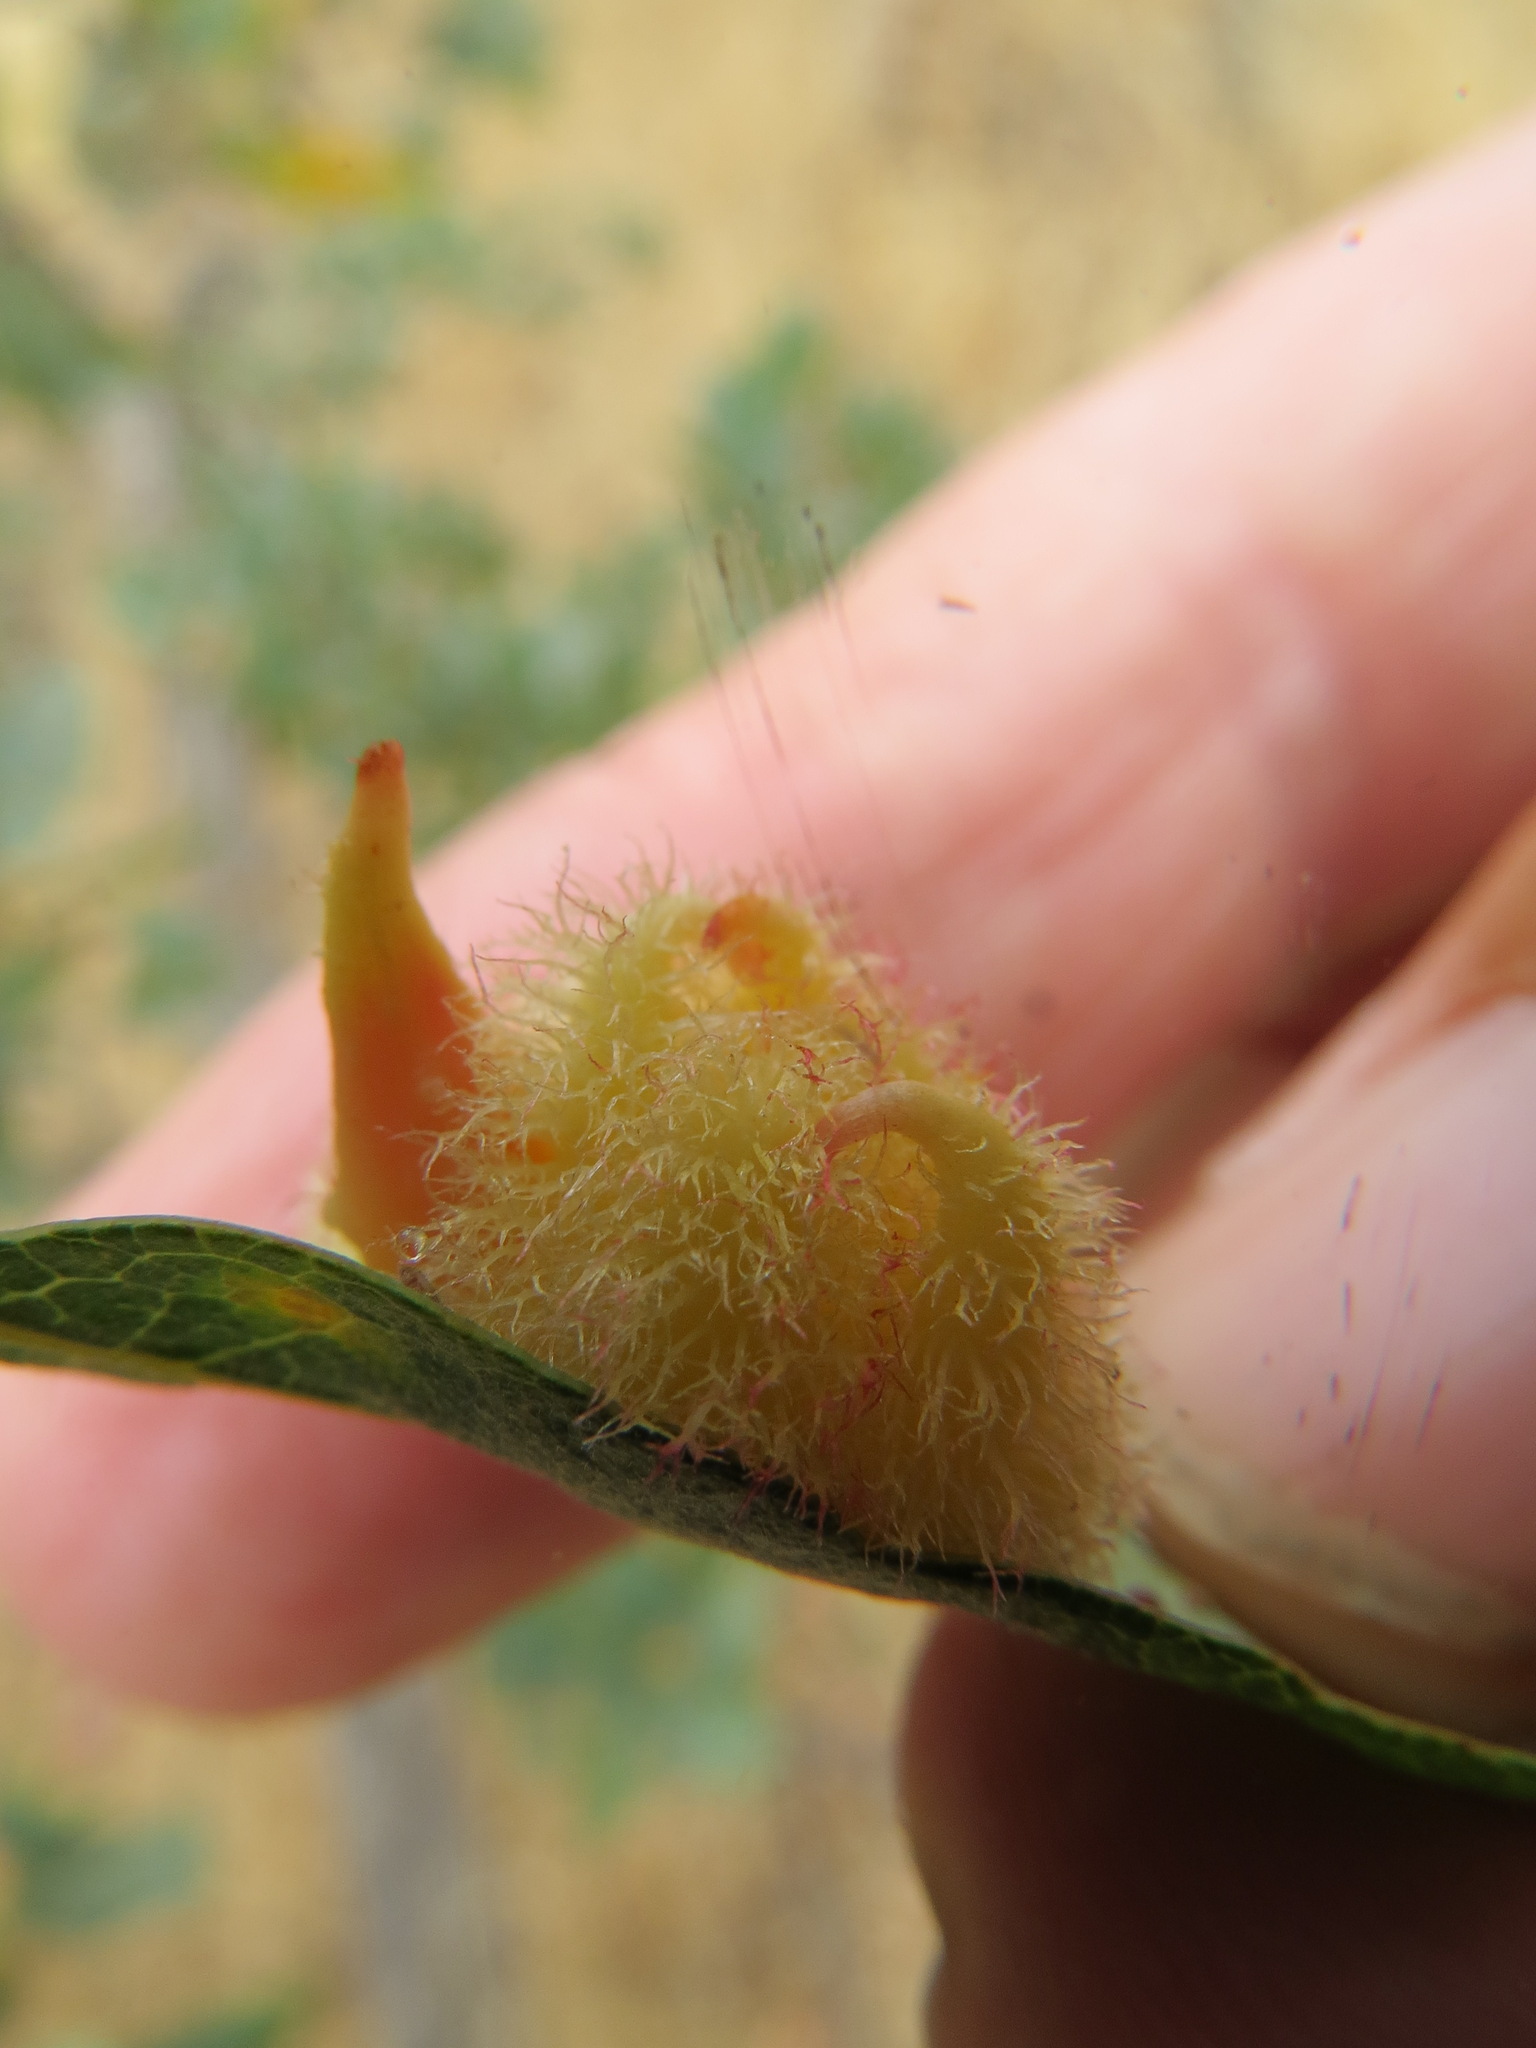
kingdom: Animalia
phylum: Arthropoda
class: Insecta
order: Hymenoptera
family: Cynipidae
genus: Andricus
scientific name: Andricus
